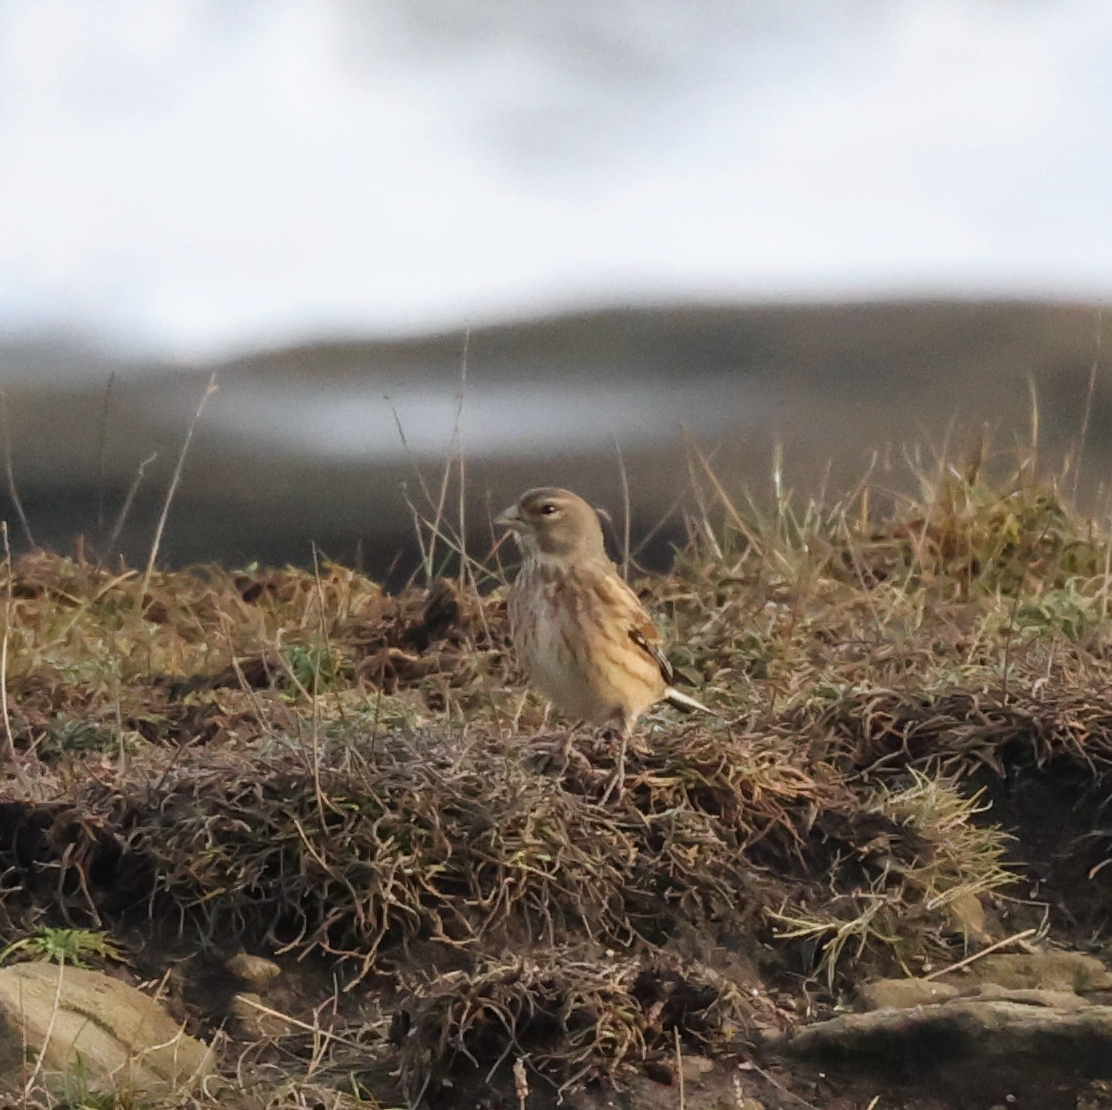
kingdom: Animalia
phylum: Chordata
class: Aves
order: Passeriformes
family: Fringillidae
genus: Linaria
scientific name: Linaria cannabina
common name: Common linnet
